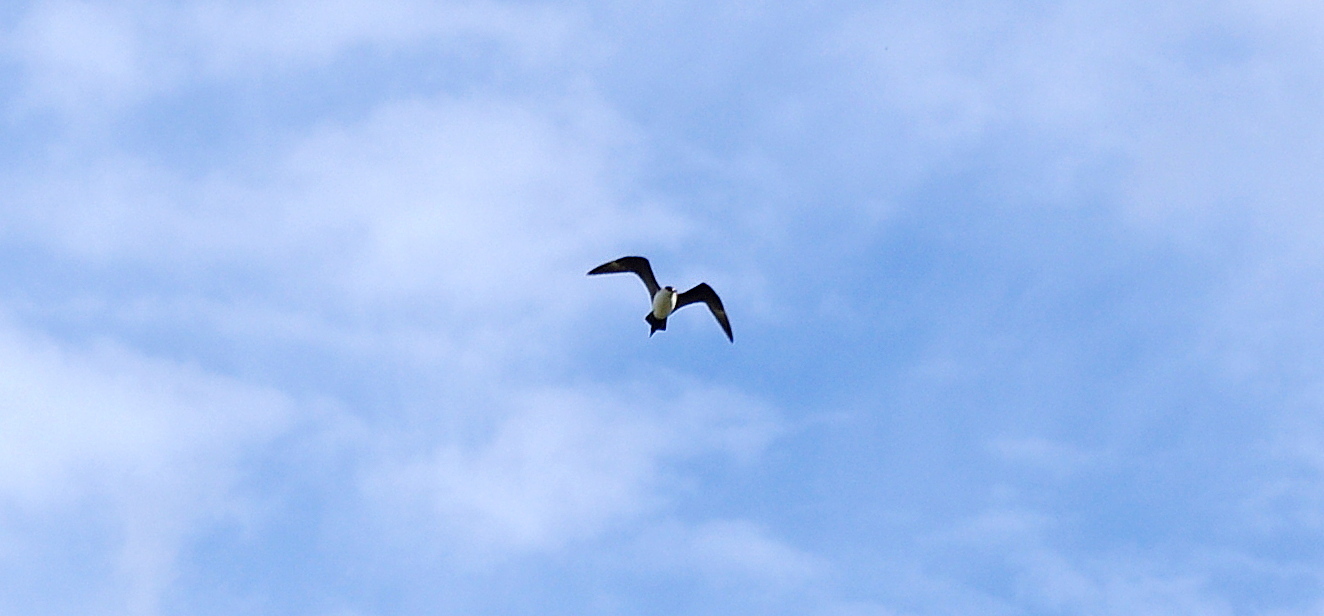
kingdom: Animalia
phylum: Chordata
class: Aves
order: Charadriiformes
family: Stercorariidae
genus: Stercorarius
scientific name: Stercorarius parasiticus
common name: Parasitic jaeger
